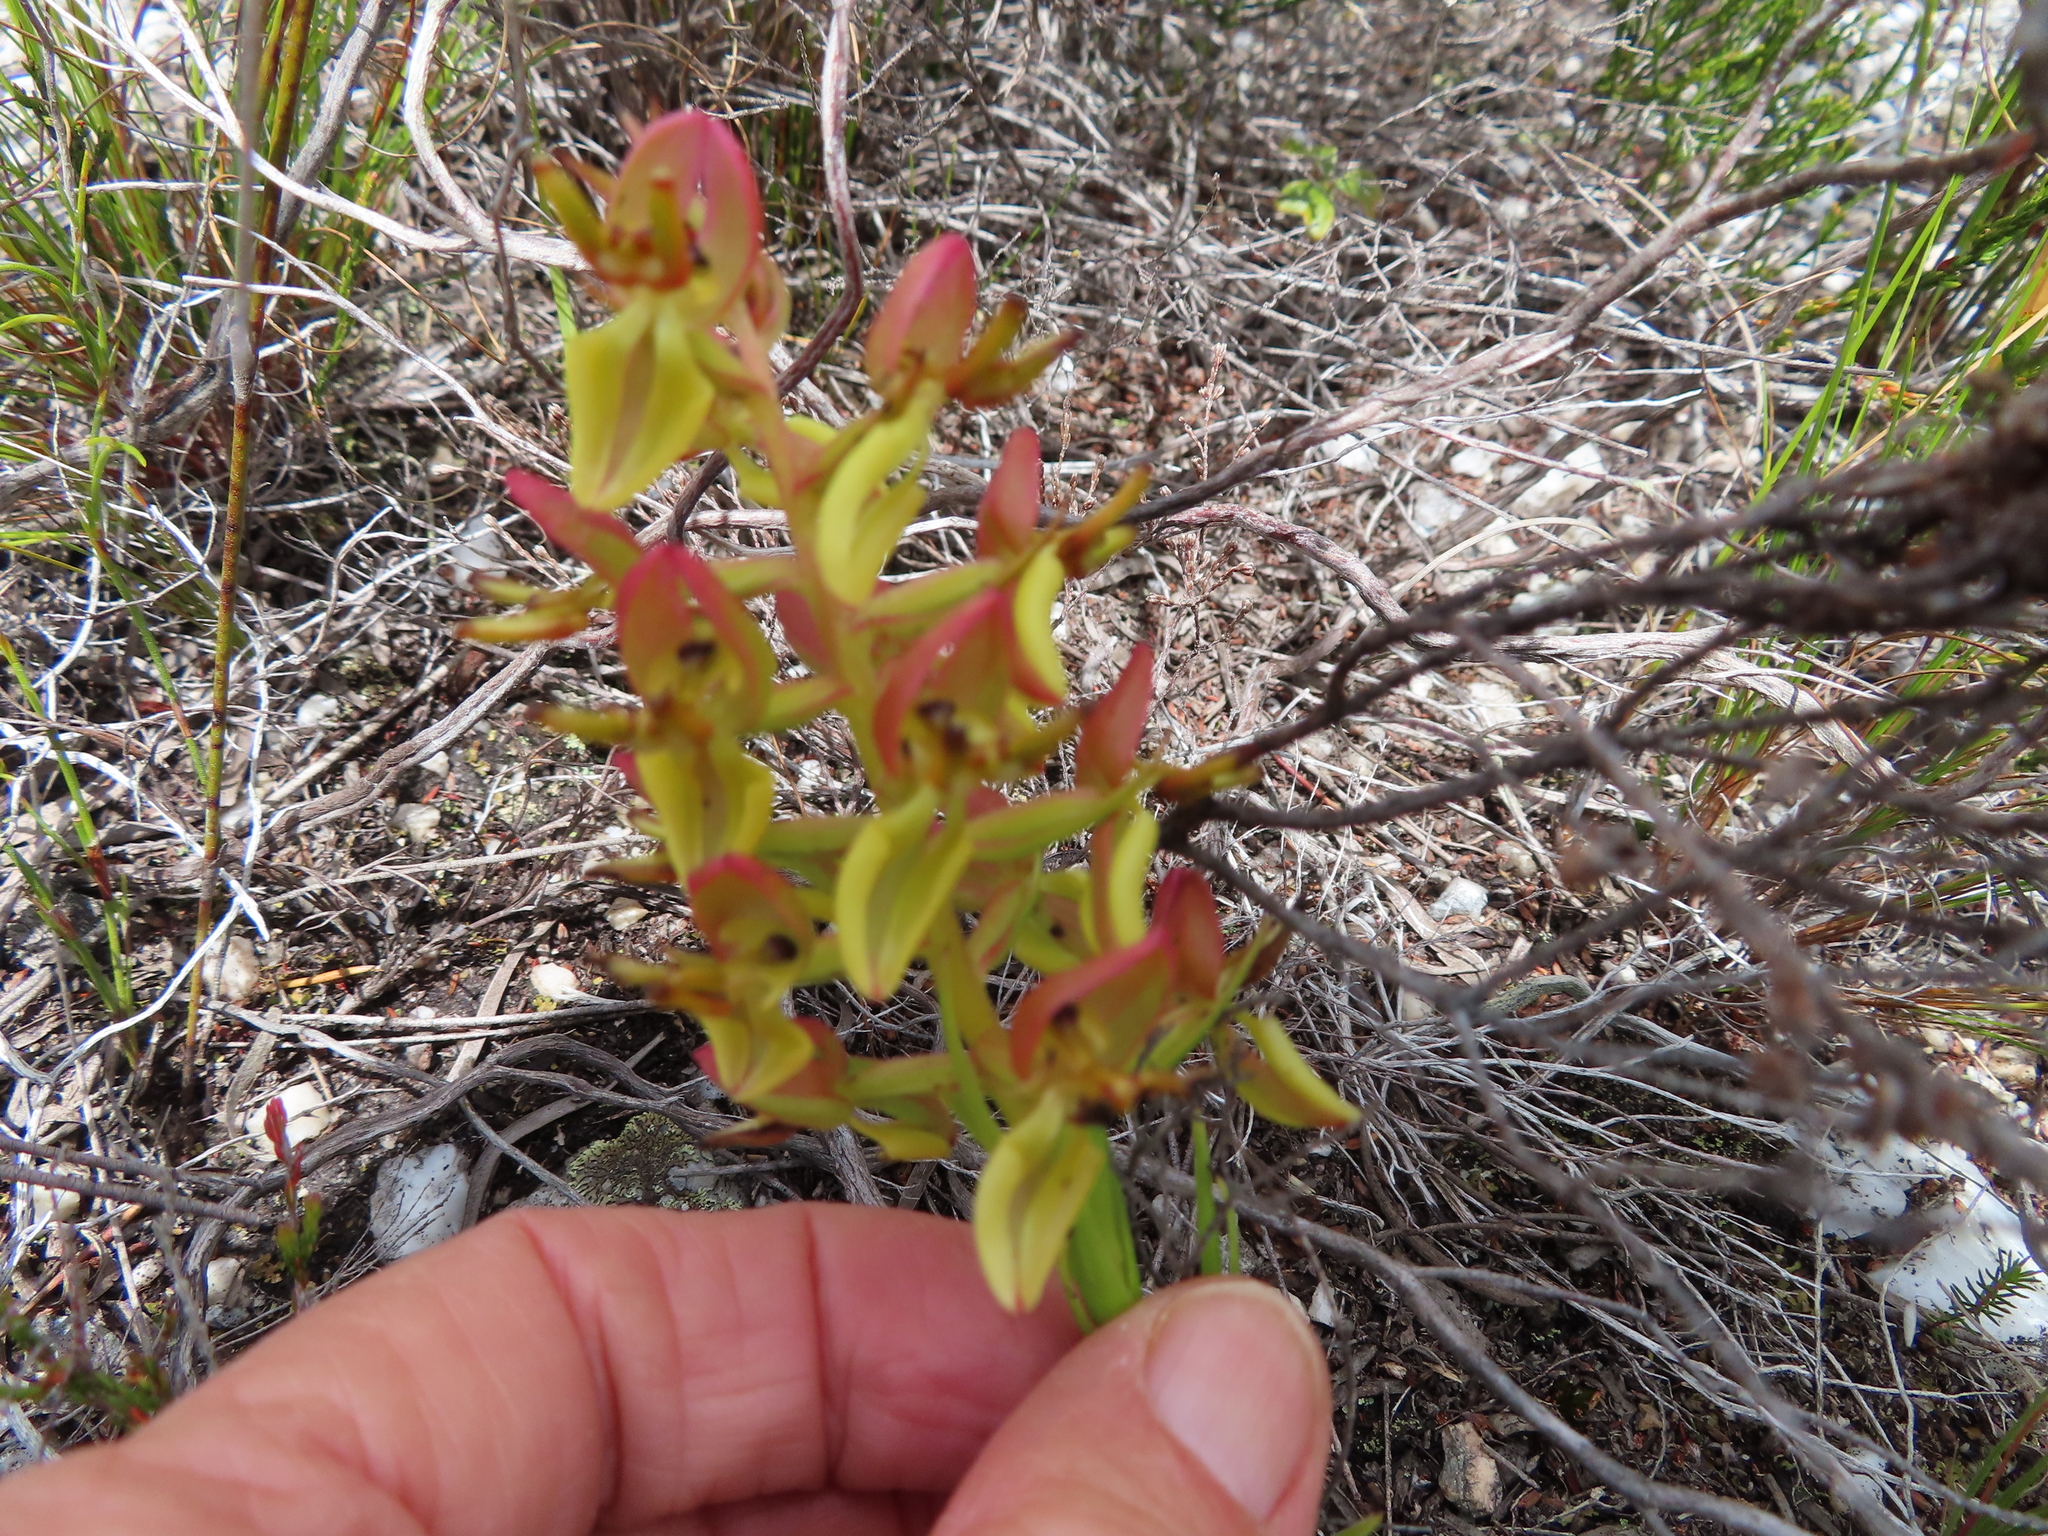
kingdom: Plantae
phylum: Tracheophyta
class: Liliopsida
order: Asparagales
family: Orchidaceae
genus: Ceratandra
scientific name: Ceratandra atrata
